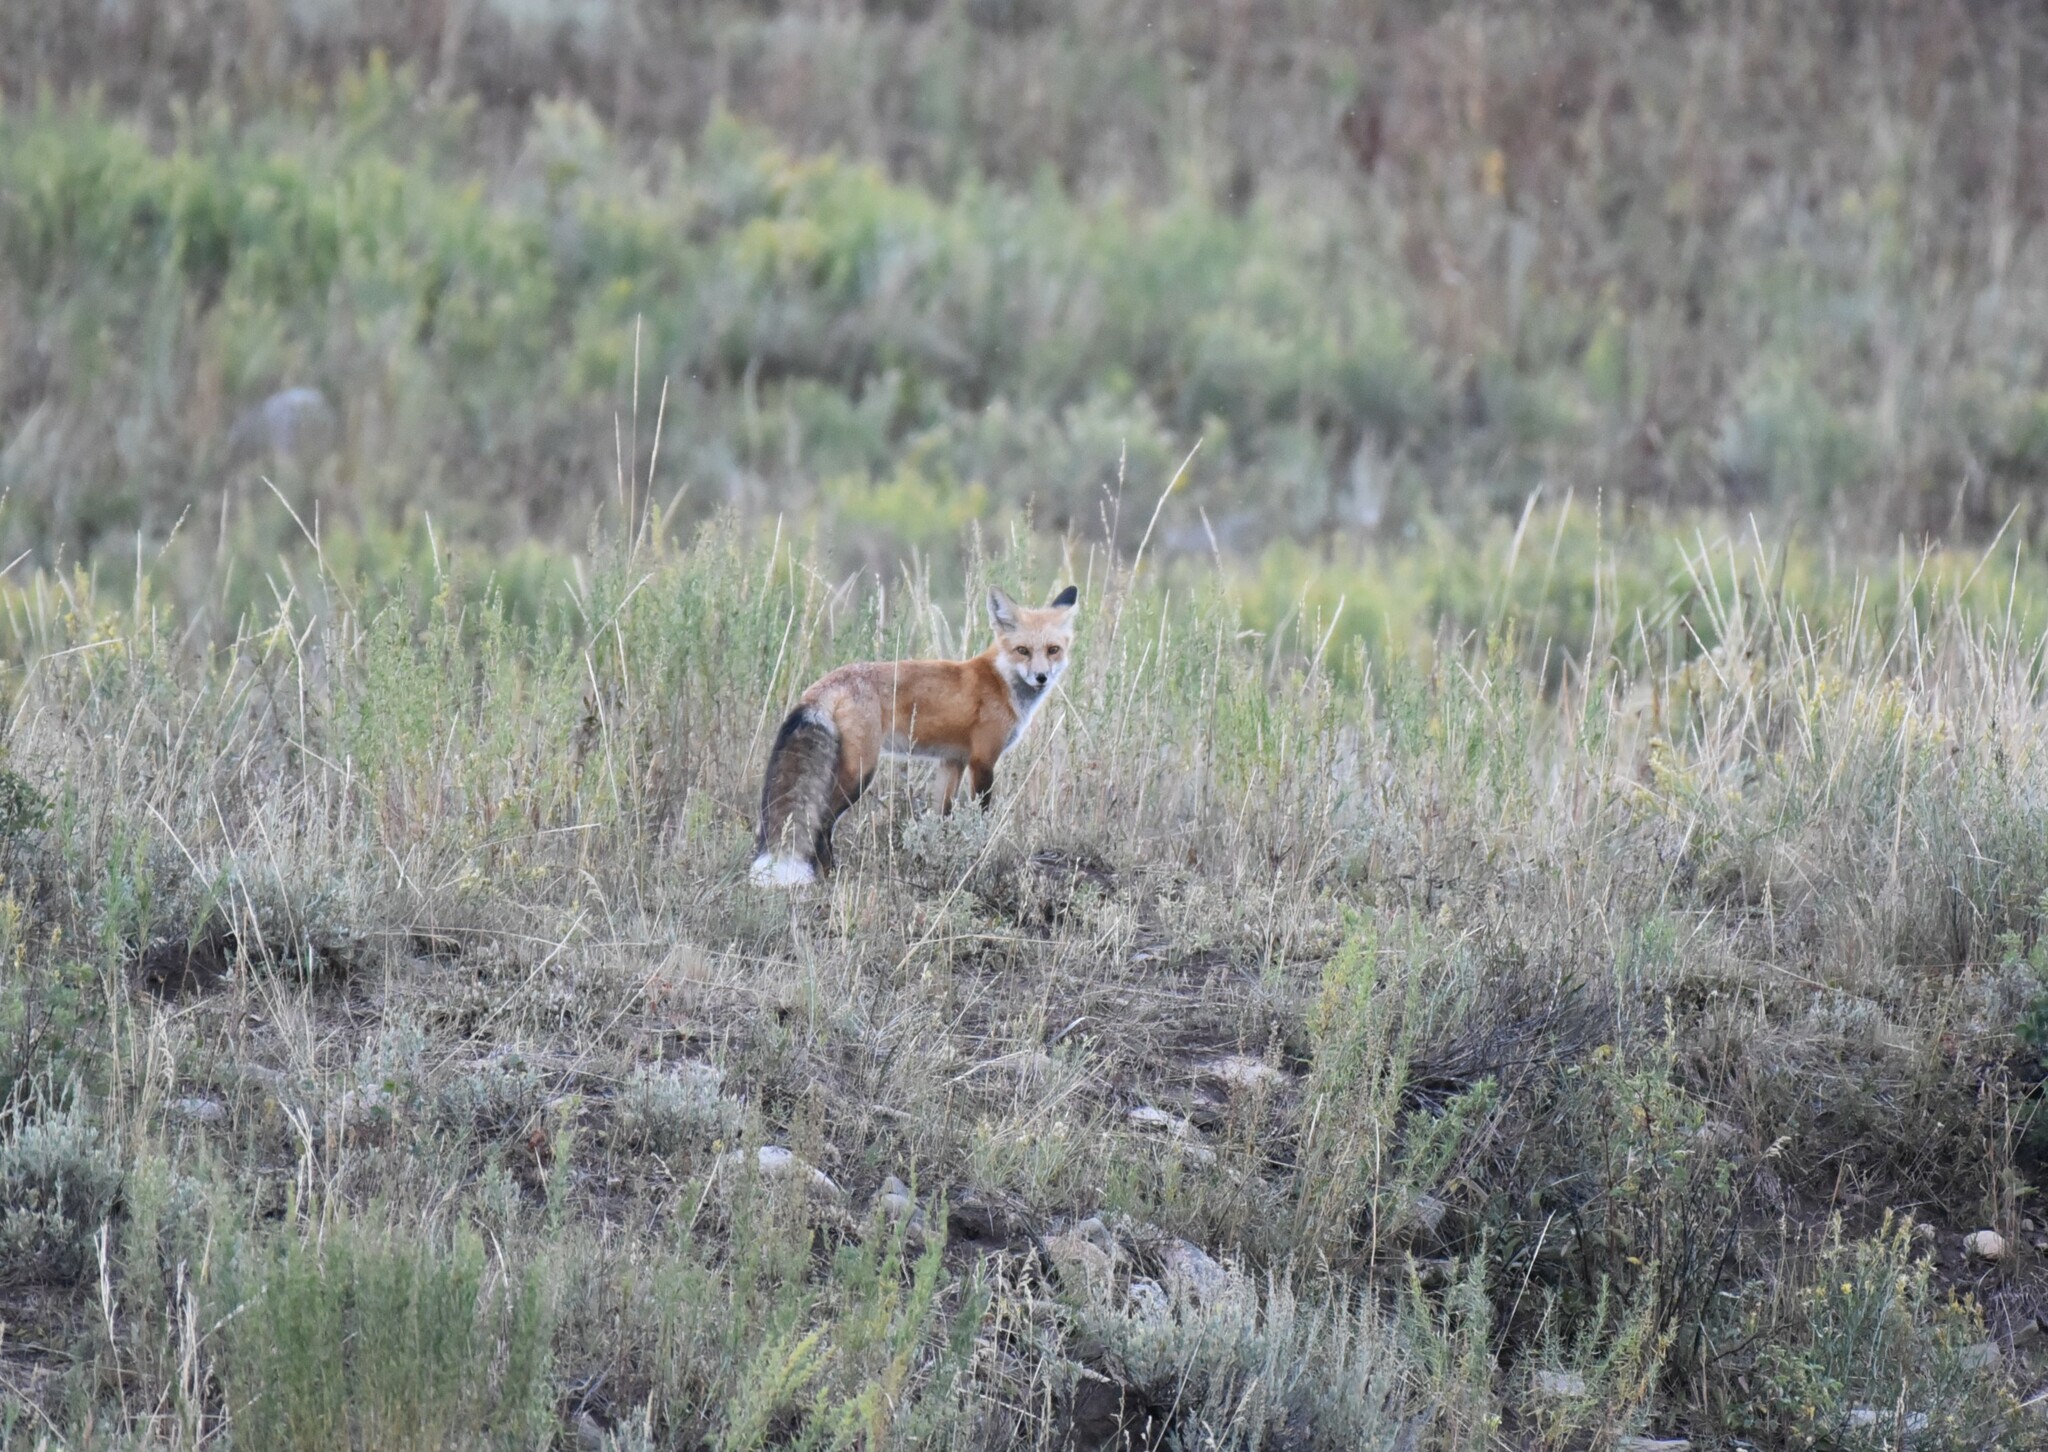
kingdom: Animalia
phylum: Chordata
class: Mammalia
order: Carnivora
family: Canidae
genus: Vulpes
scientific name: Vulpes vulpes
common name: Red fox
